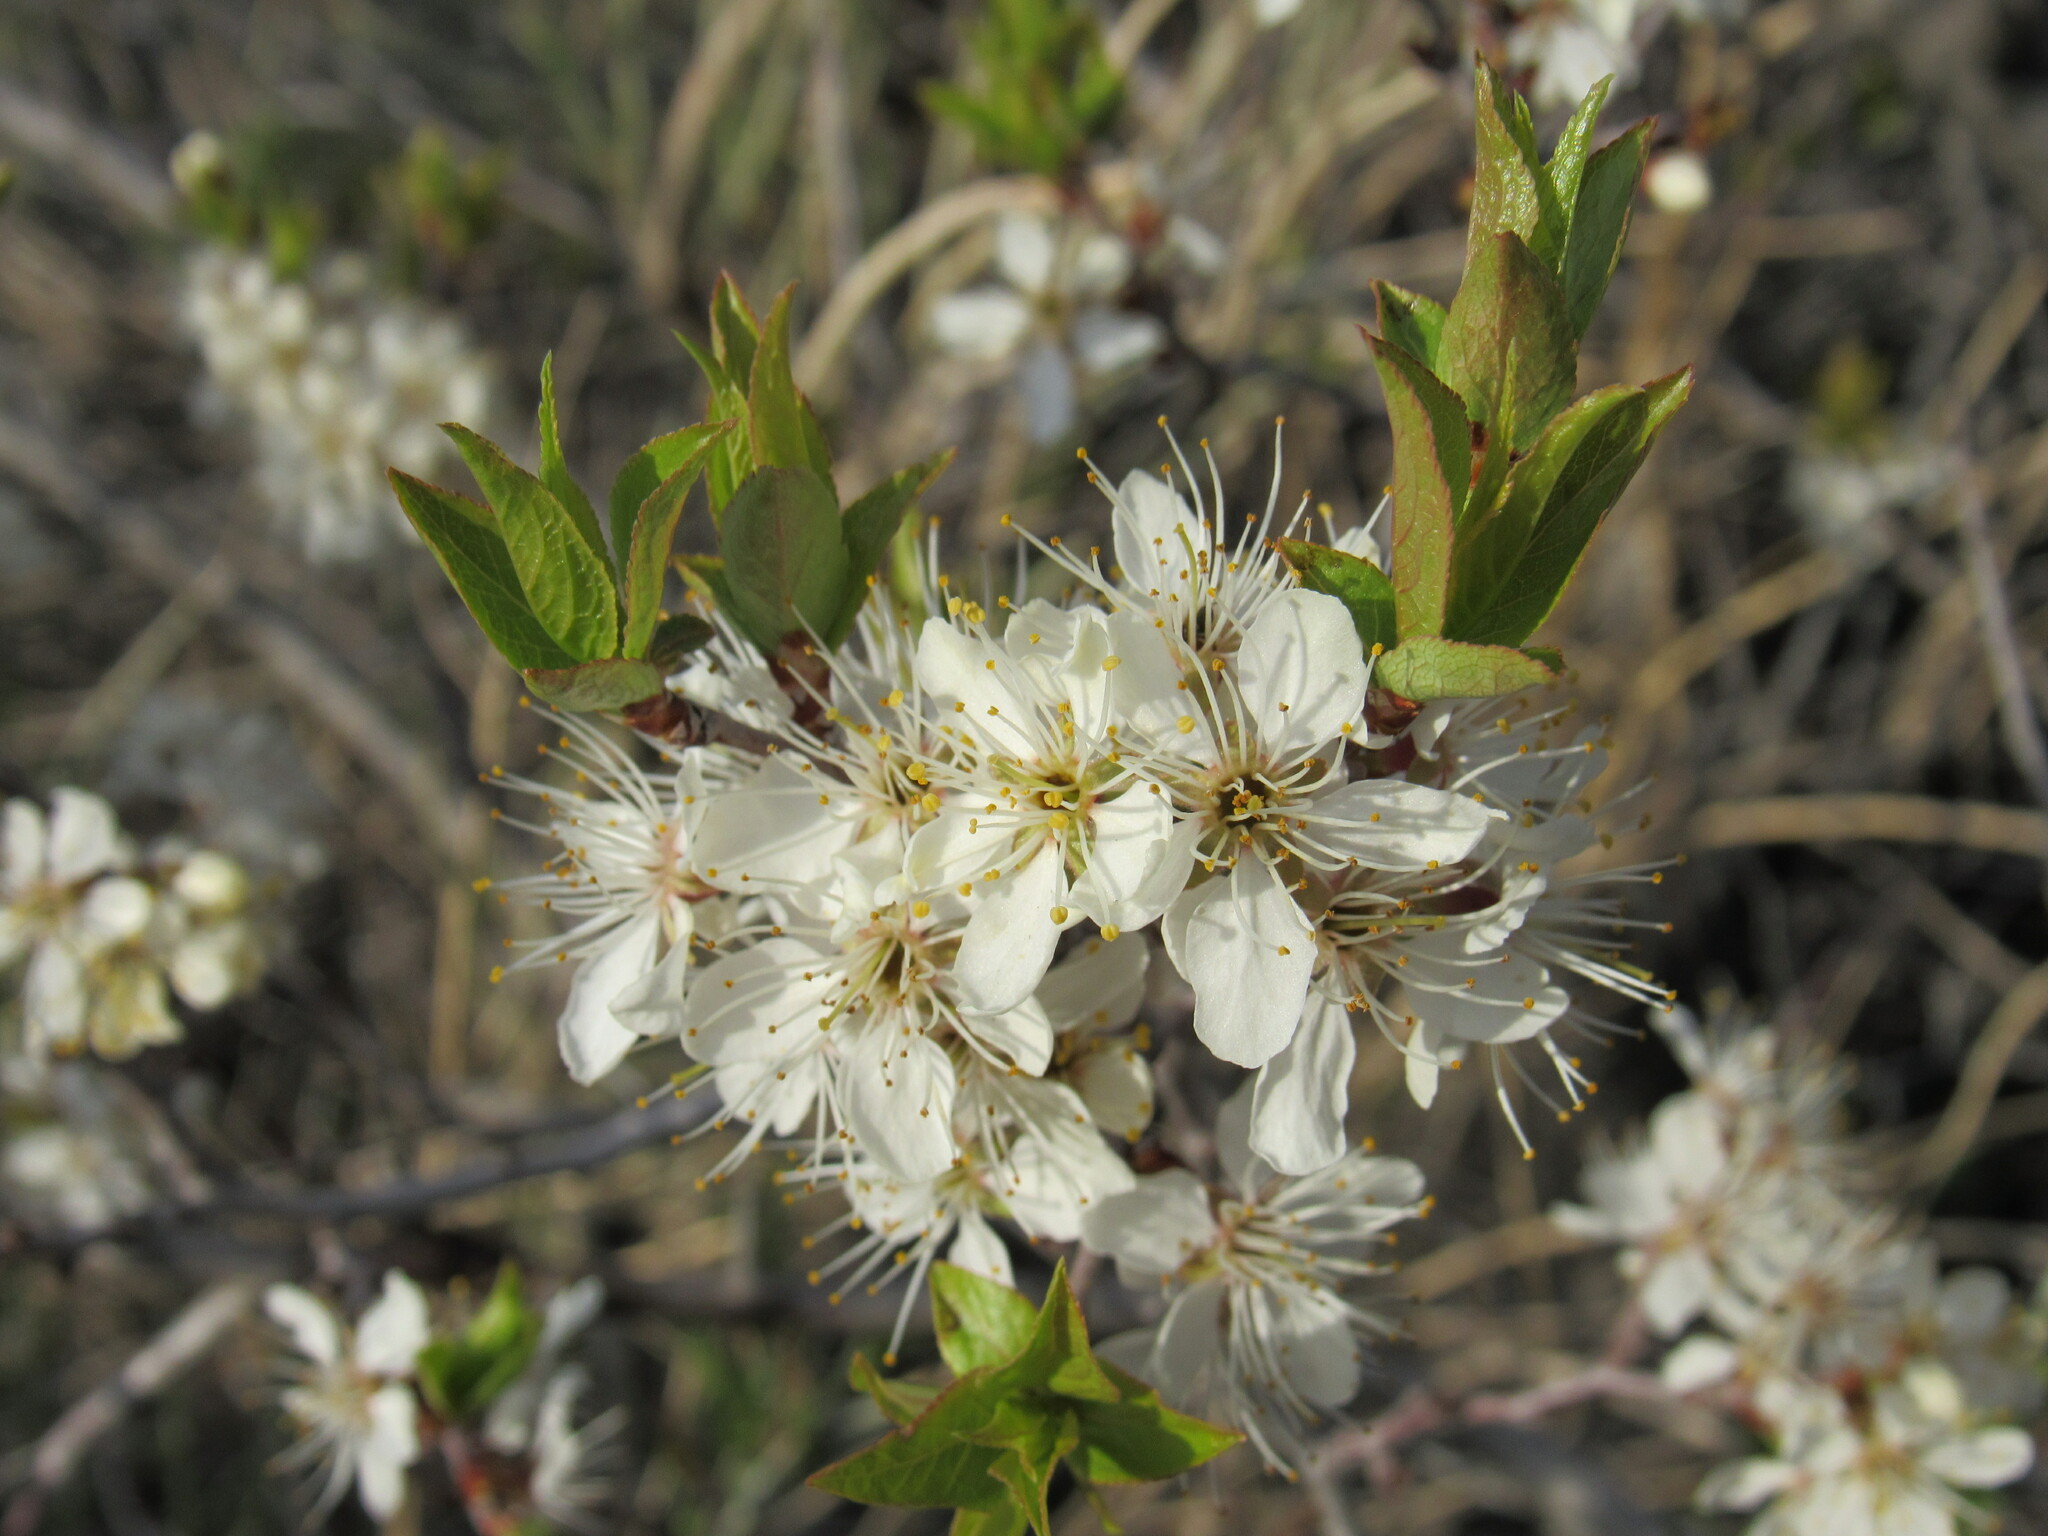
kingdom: Plantae
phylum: Tracheophyta
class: Magnoliopsida
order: Rosales
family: Rosaceae
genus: Prunus
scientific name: Prunus americana
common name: American plum
